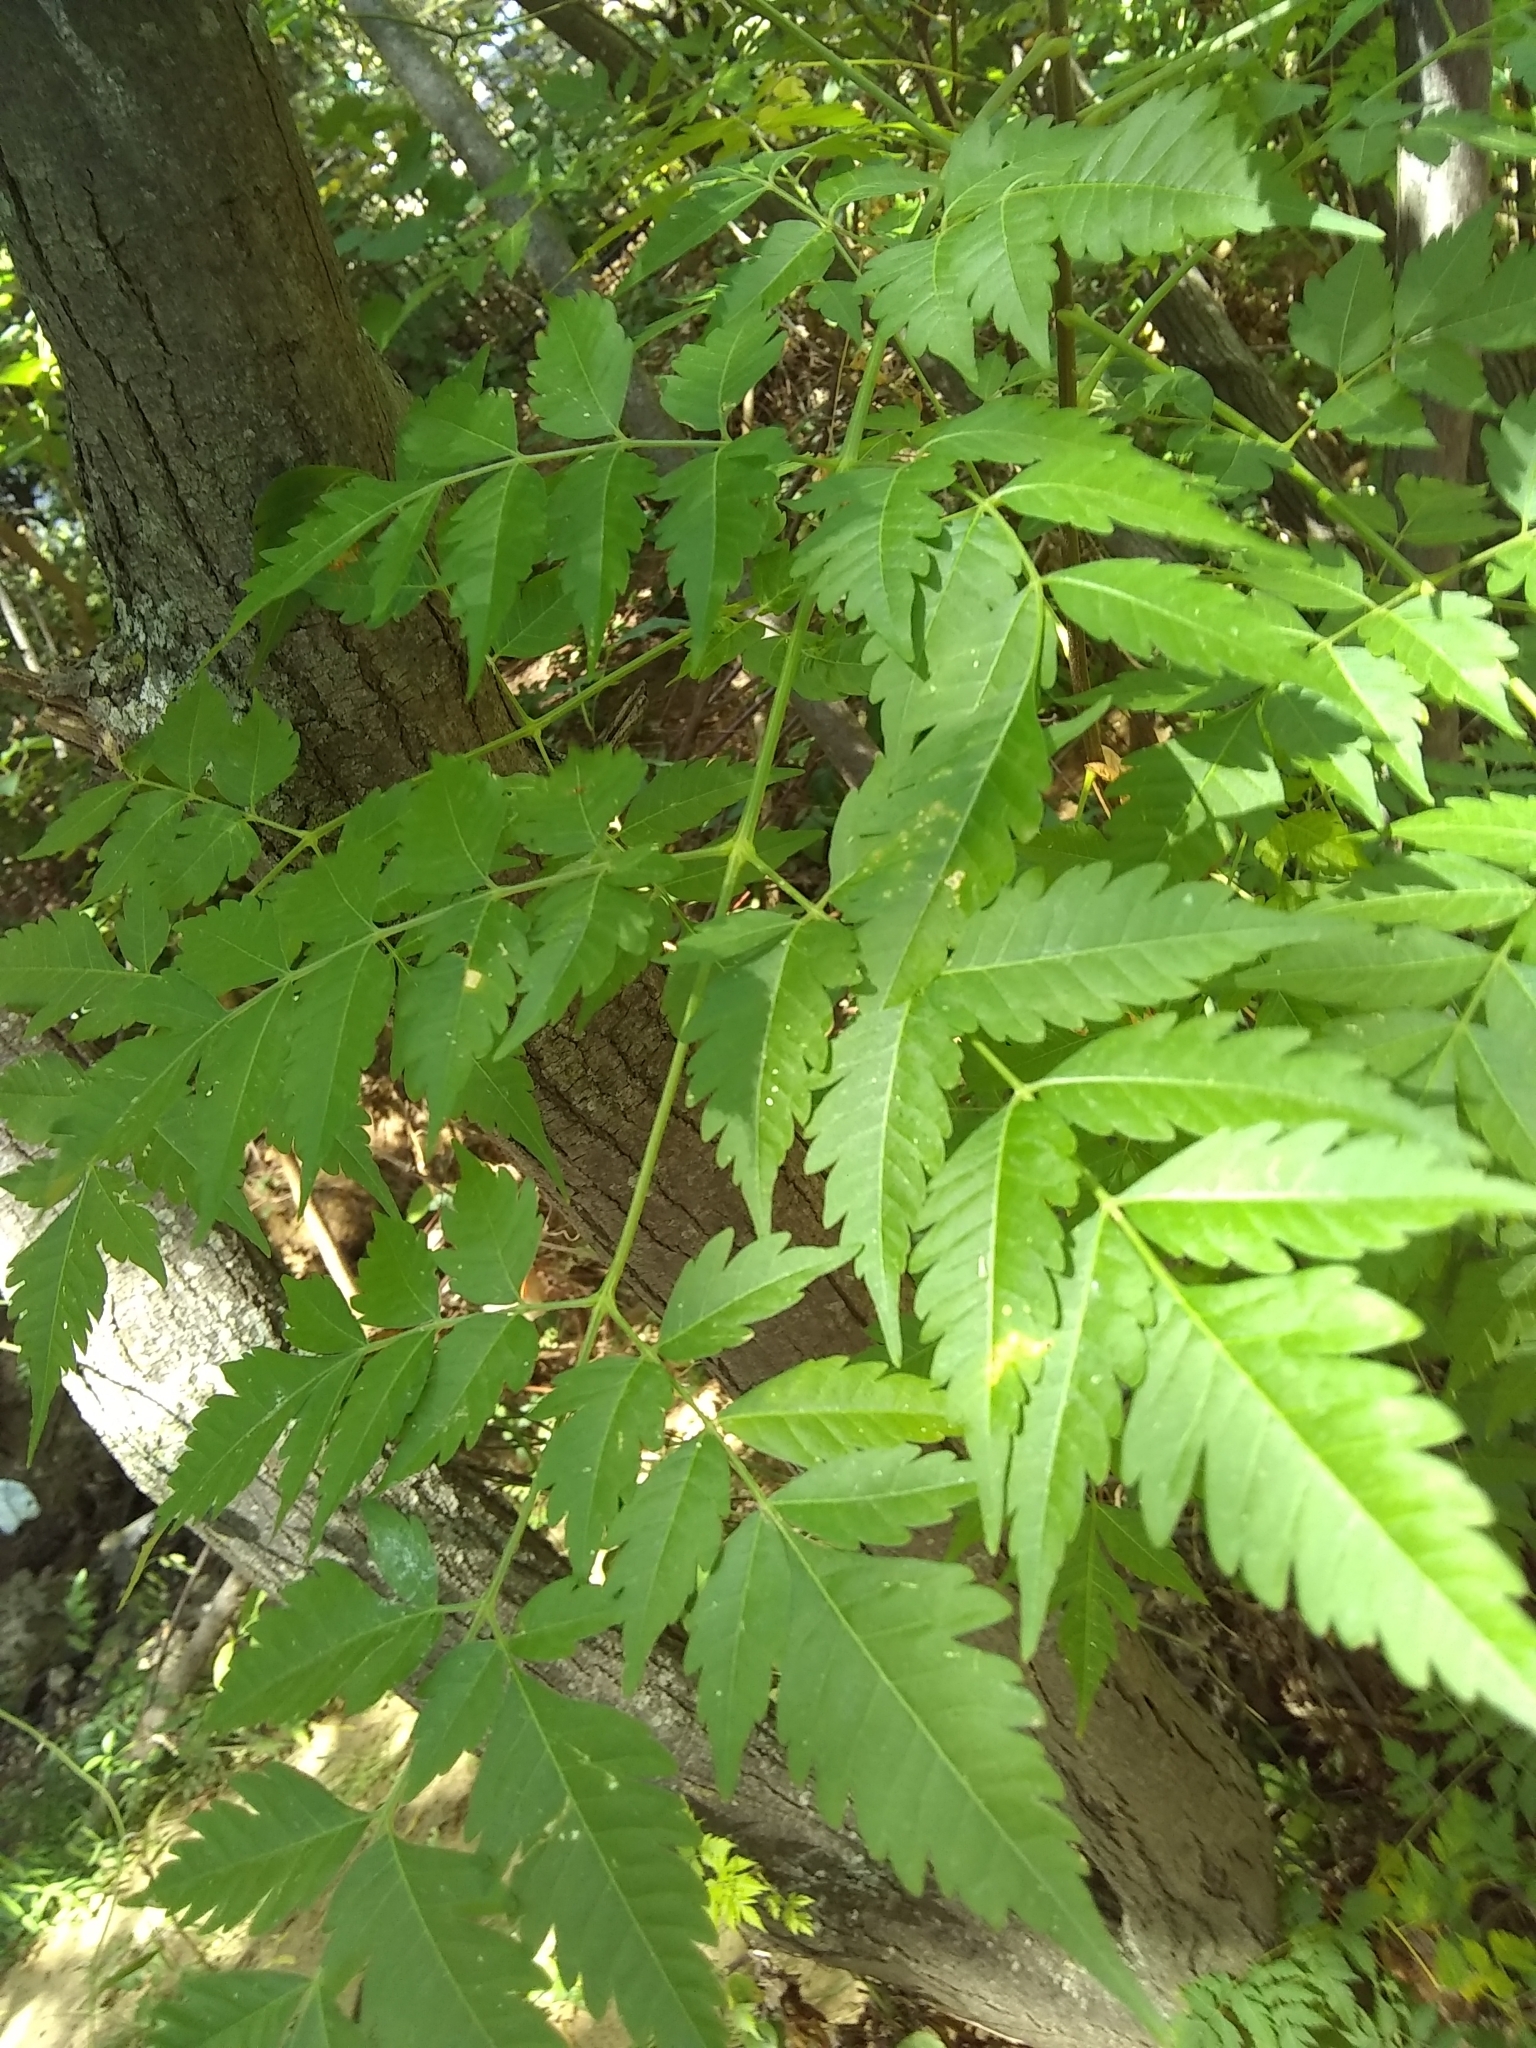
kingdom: Plantae
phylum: Tracheophyta
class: Magnoliopsida
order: Sapindales
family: Meliaceae
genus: Melia
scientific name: Melia azedarach
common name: Chinaberrytree
